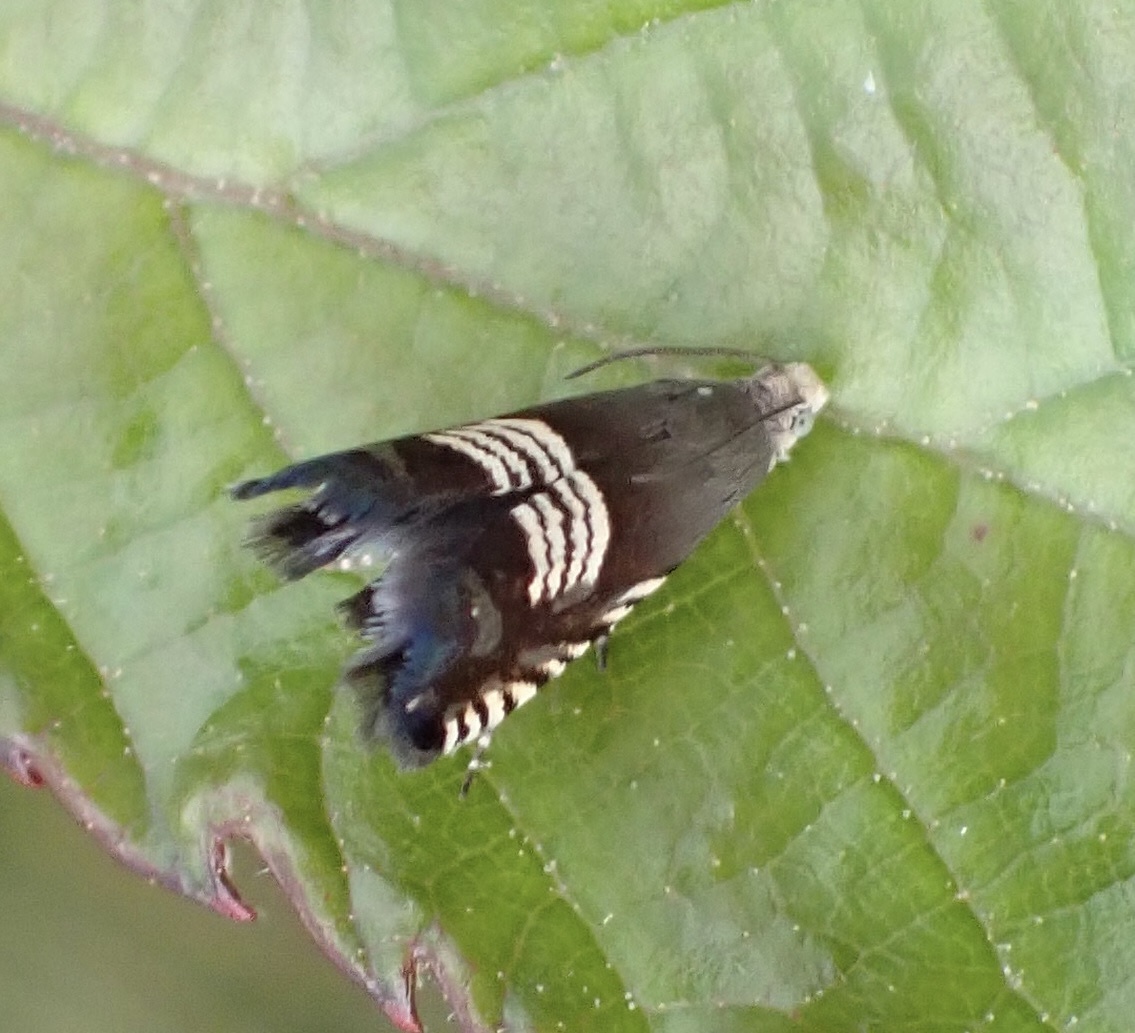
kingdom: Animalia
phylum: Arthropoda
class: Insecta
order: Lepidoptera
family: Tortricidae
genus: Grapholita
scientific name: Grapholita compositella
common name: Triple-stripe piercer
